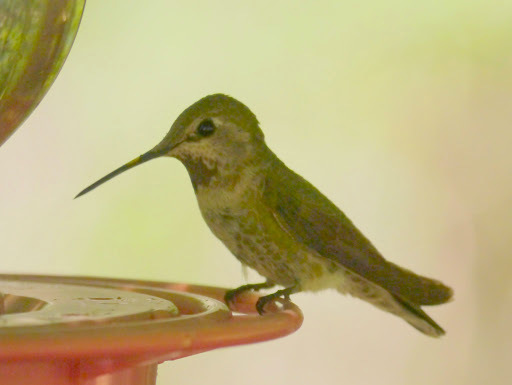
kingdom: Animalia
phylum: Chordata
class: Aves
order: Apodiformes
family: Trochilidae
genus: Calypte
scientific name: Calypte anna
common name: Anna's hummingbird
